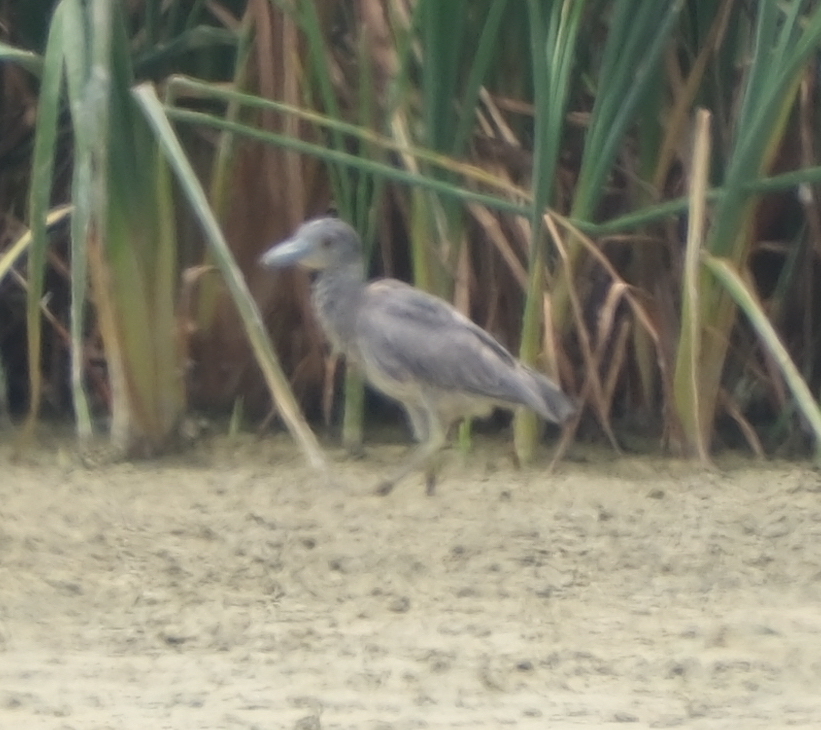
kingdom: Animalia
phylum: Chordata
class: Aves
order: Pelecaniformes
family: Ardeidae
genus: Nyctanassa
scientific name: Nyctanassa violacea
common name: Yellow-crowned night heron
